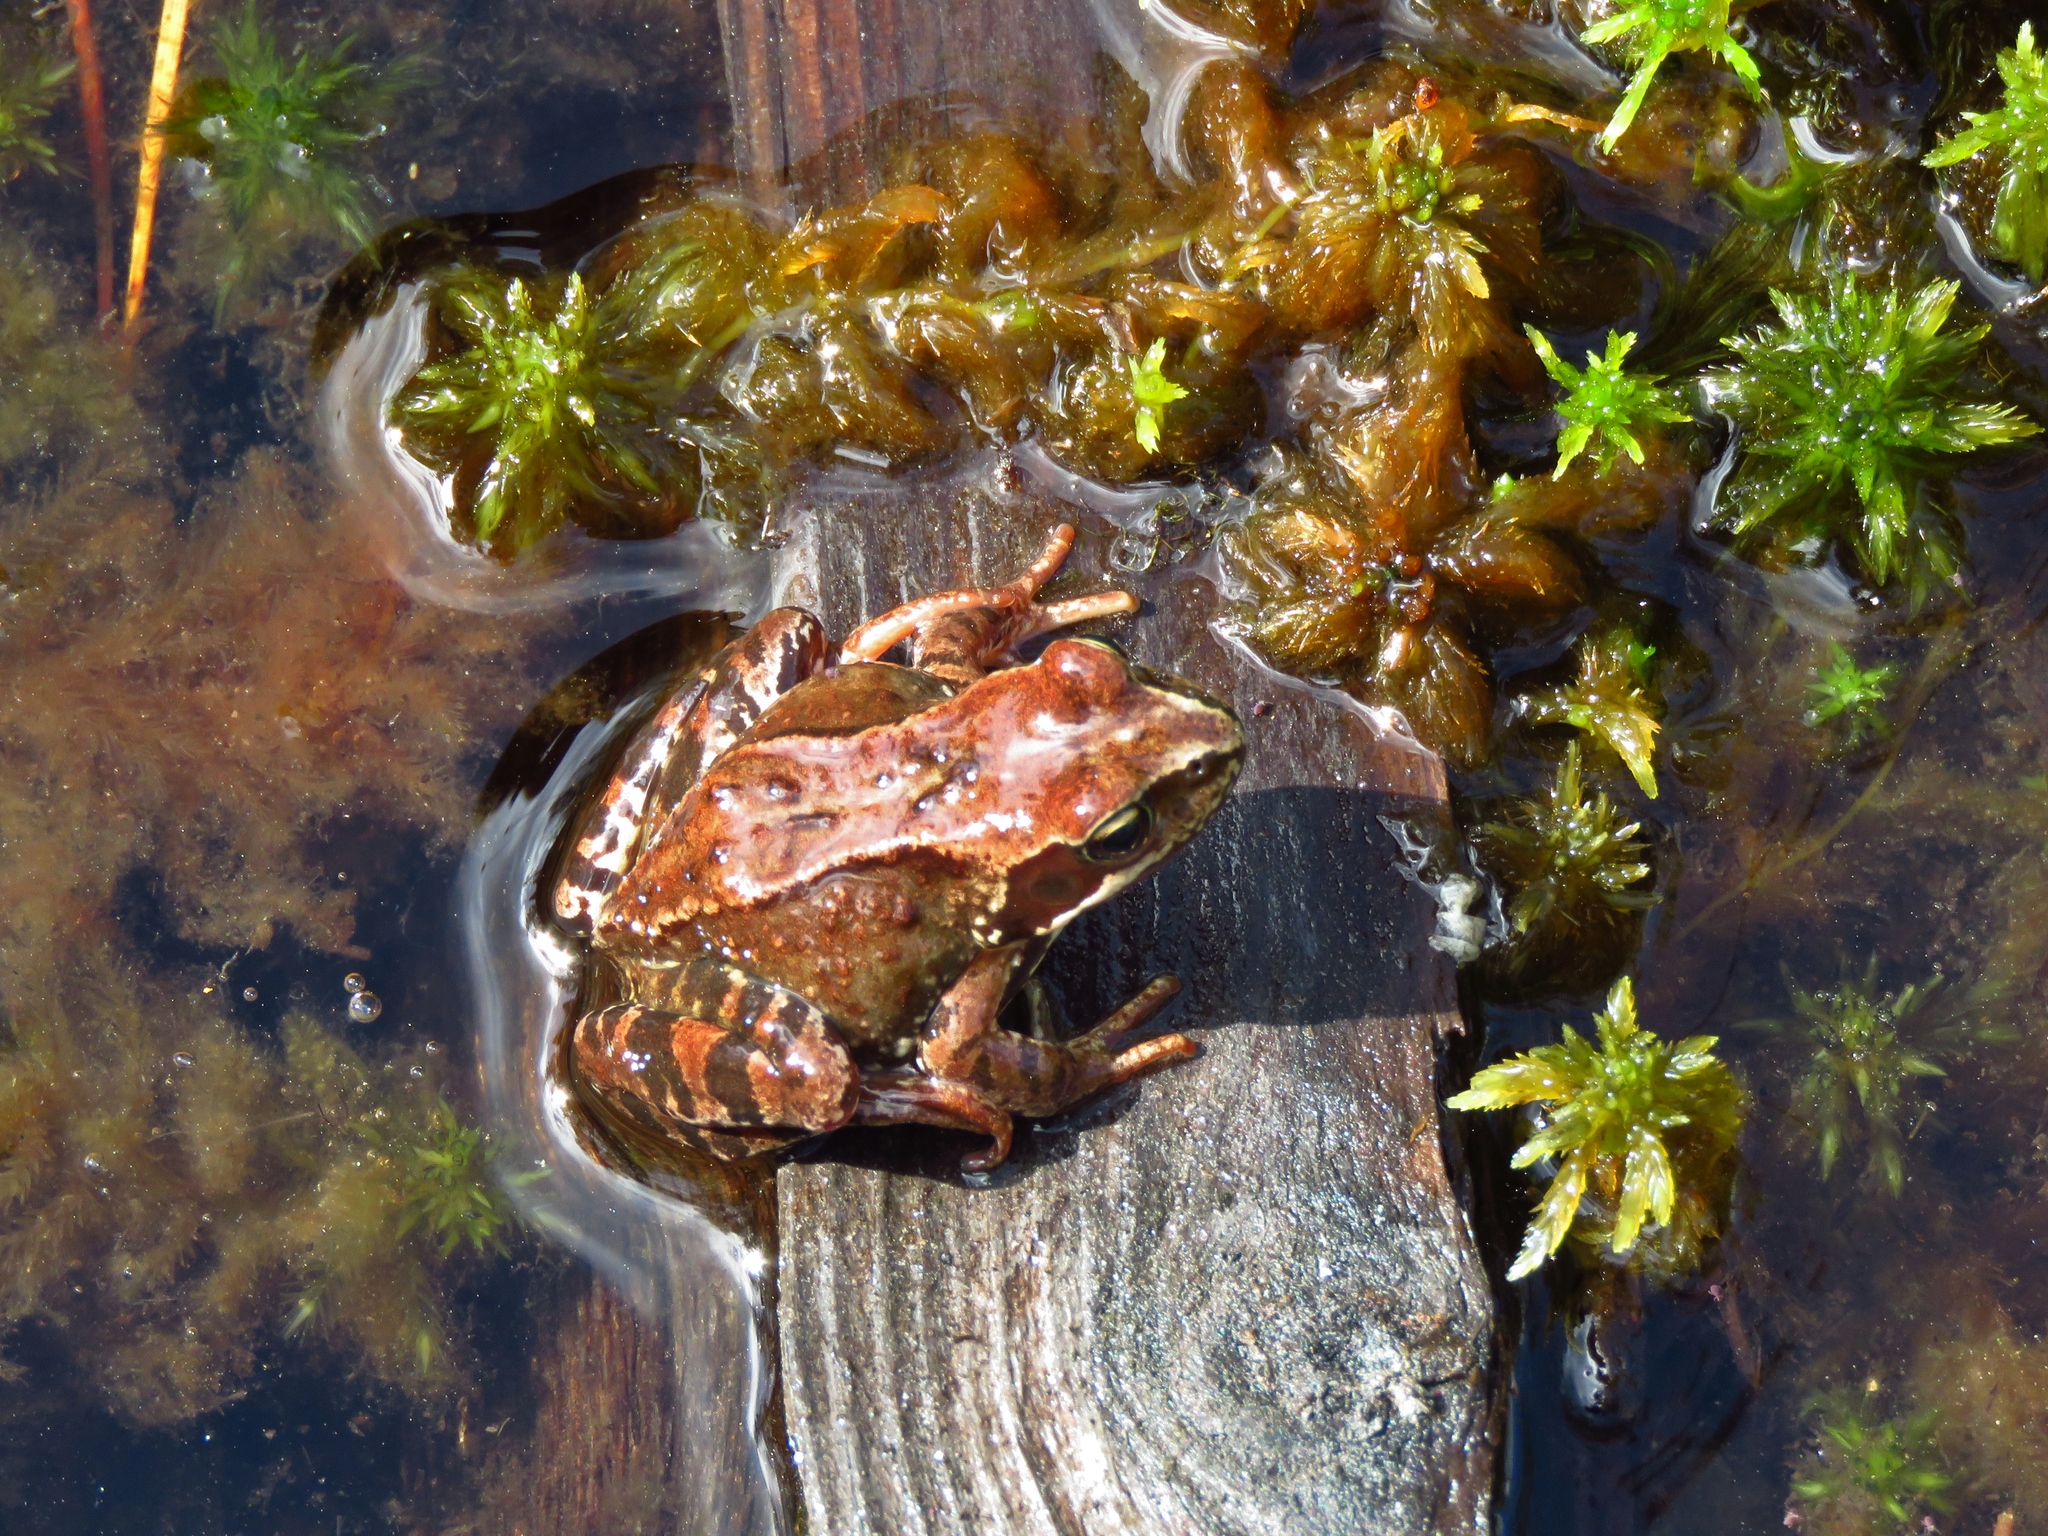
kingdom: Animalia
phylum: Chordata
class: Amphibia
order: Anura
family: Ranidae
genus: Rana
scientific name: Rana temporaria
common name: Common frog
